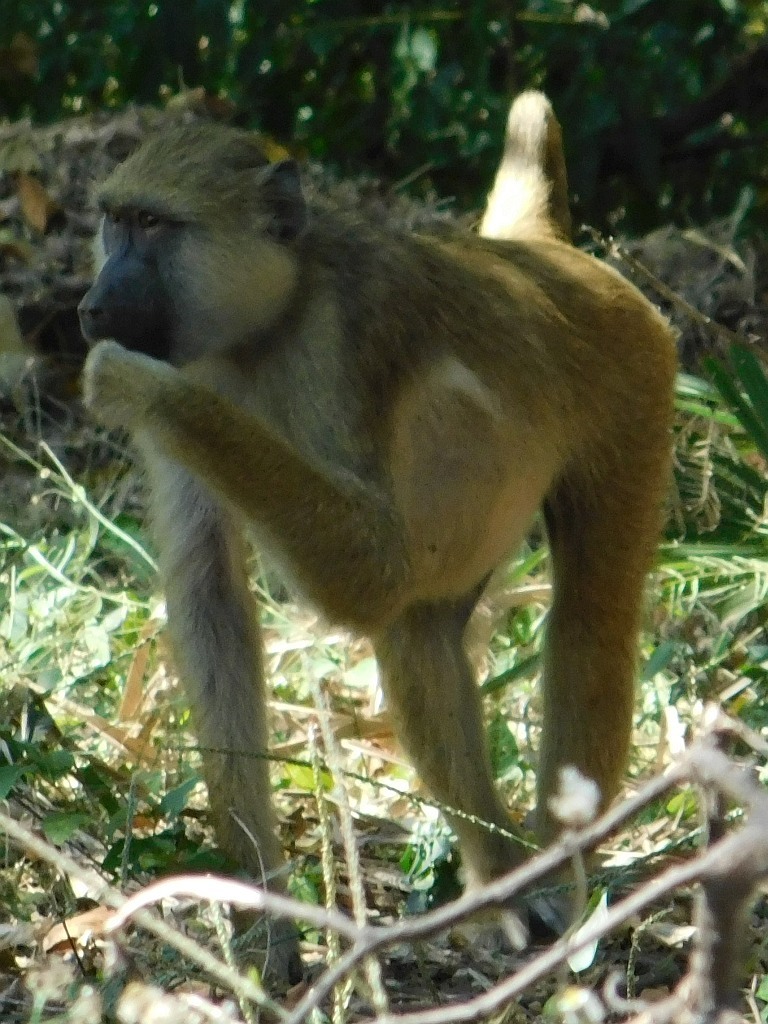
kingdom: Animalia
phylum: Chordata
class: Mammalia
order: Primates
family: Cercopithecidae
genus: Papio
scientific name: Papio cynocephalus
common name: Yellow baboon
